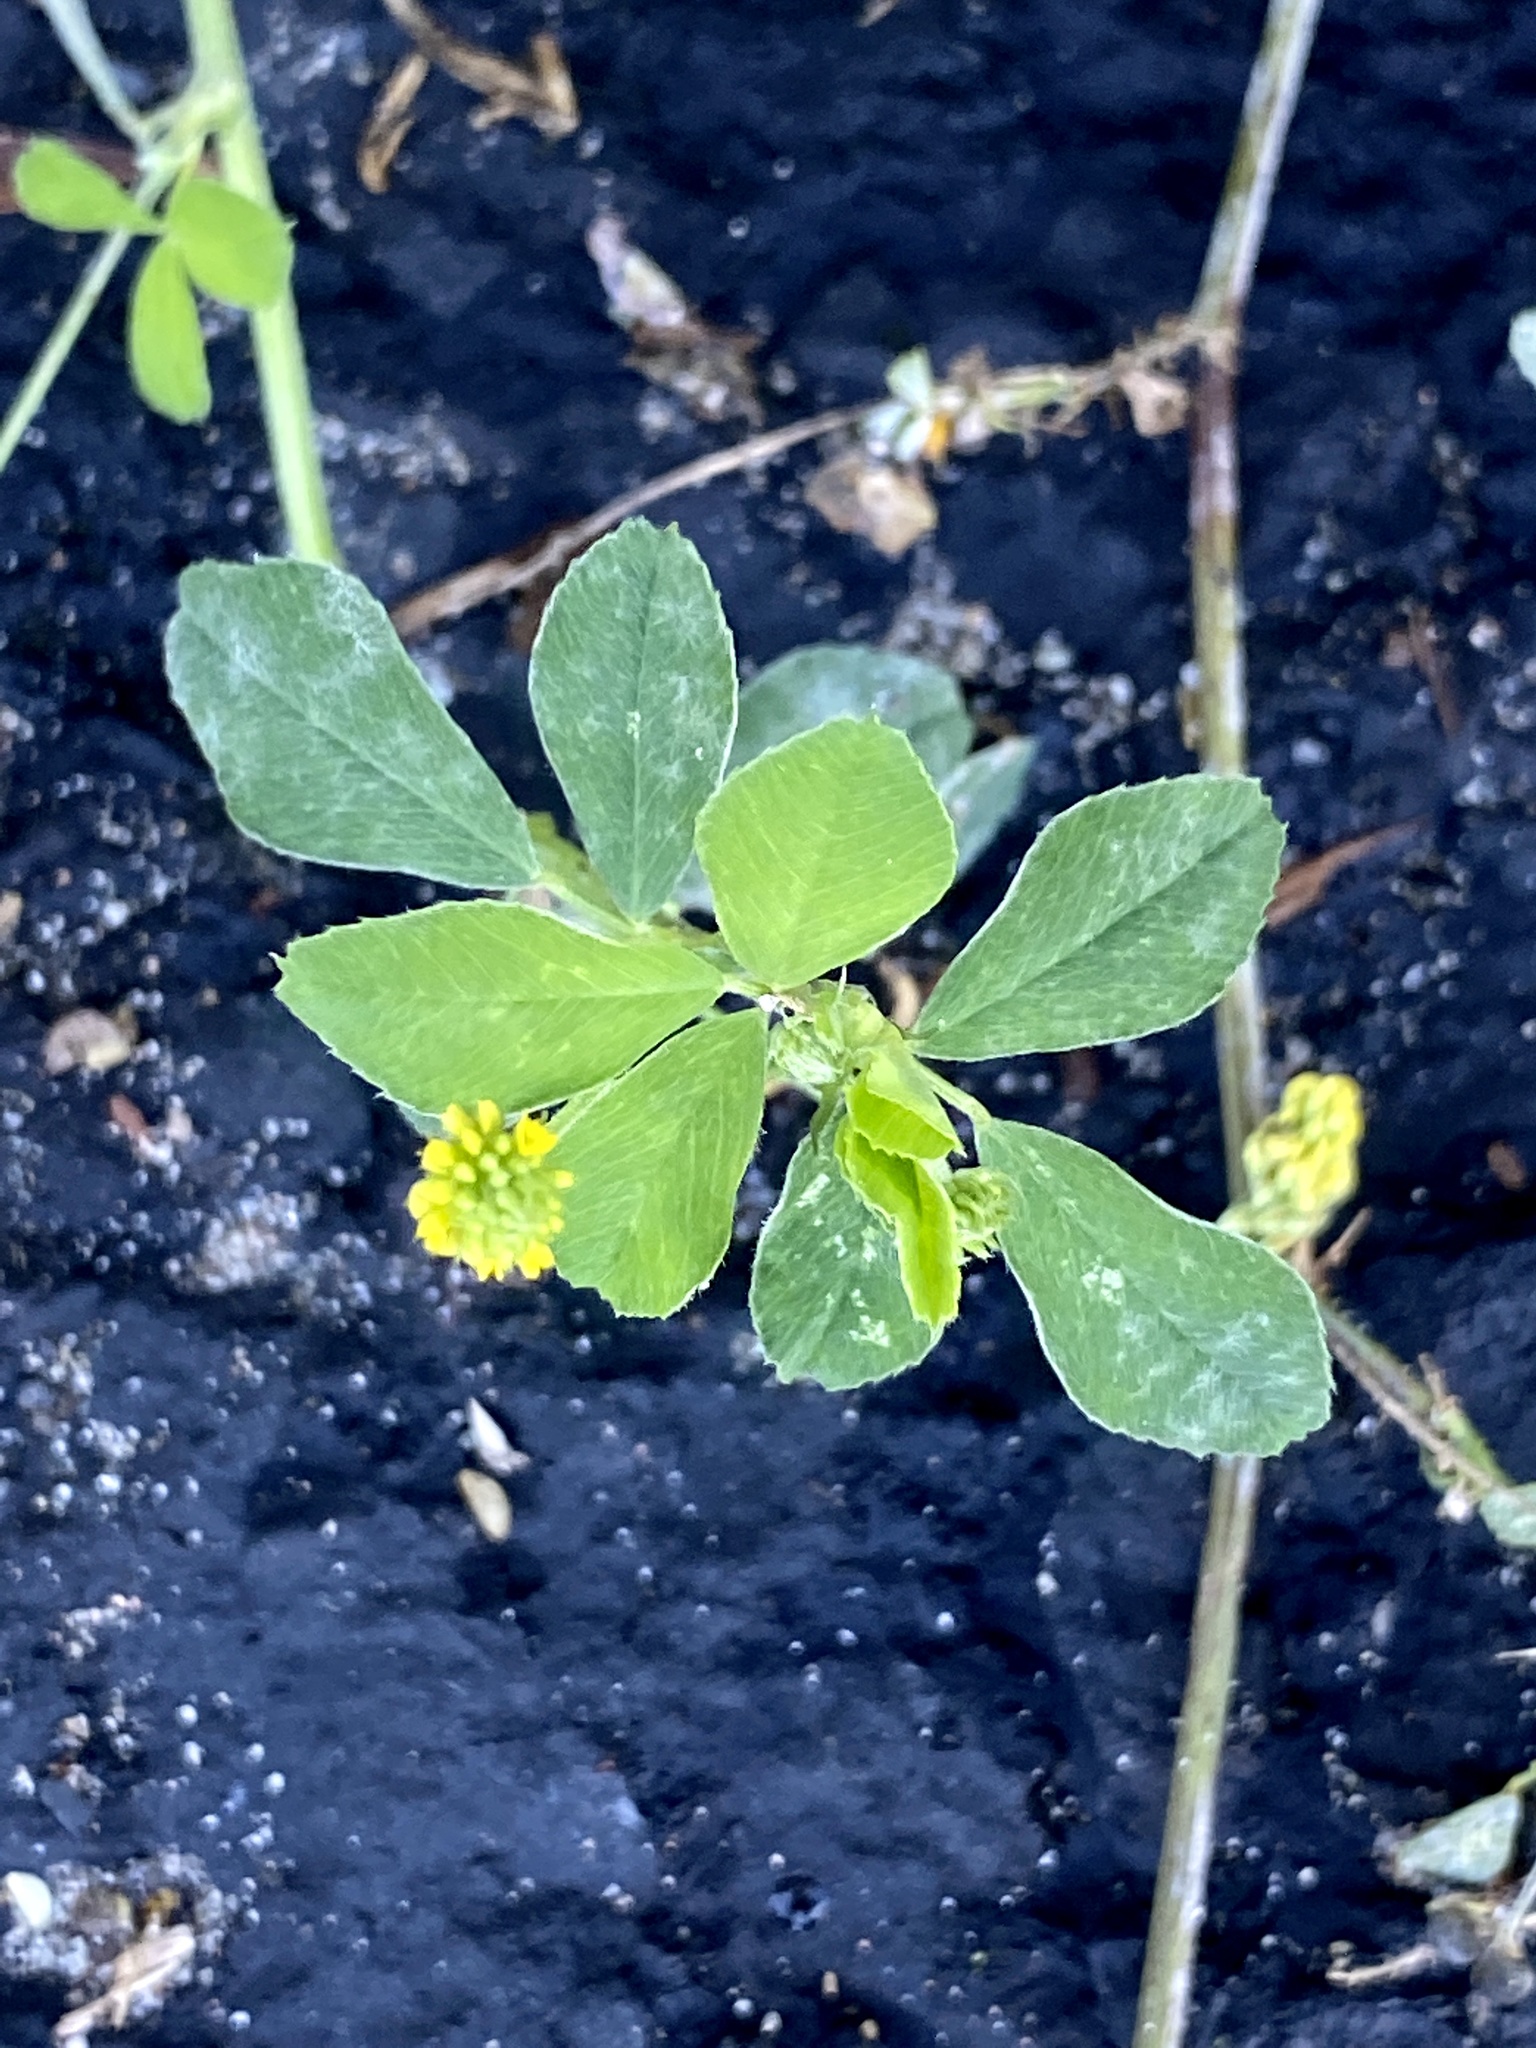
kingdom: Plantae
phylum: Tracheophyta
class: Magnoliopsida
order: Fabales
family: Fabaceae
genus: Medicago
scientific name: Medicago lupulina
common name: Black medick
